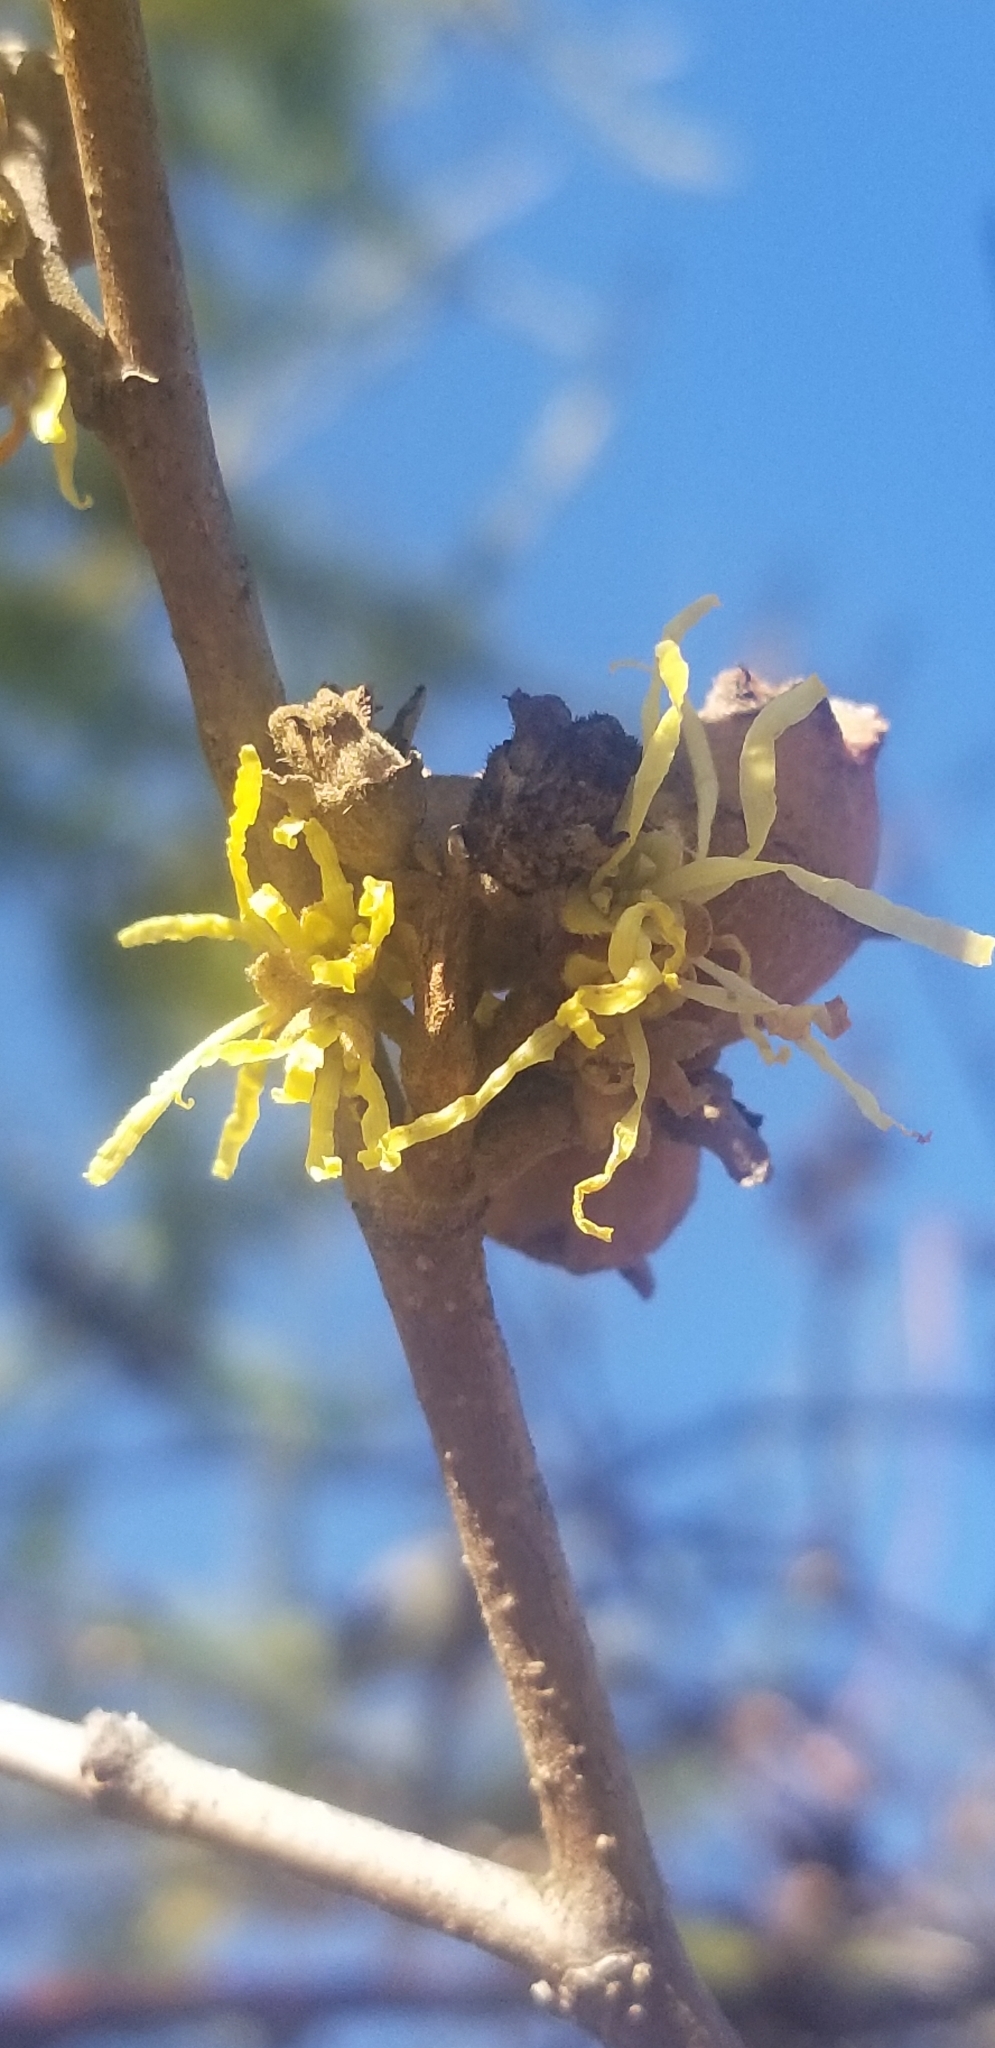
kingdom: Plantae
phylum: Tracheophyta
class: Magnoliopsida
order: Saxifragales
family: Hamamelidaceae
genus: Hamamelis
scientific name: Hamamelis virginiana
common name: Witch-hazel
